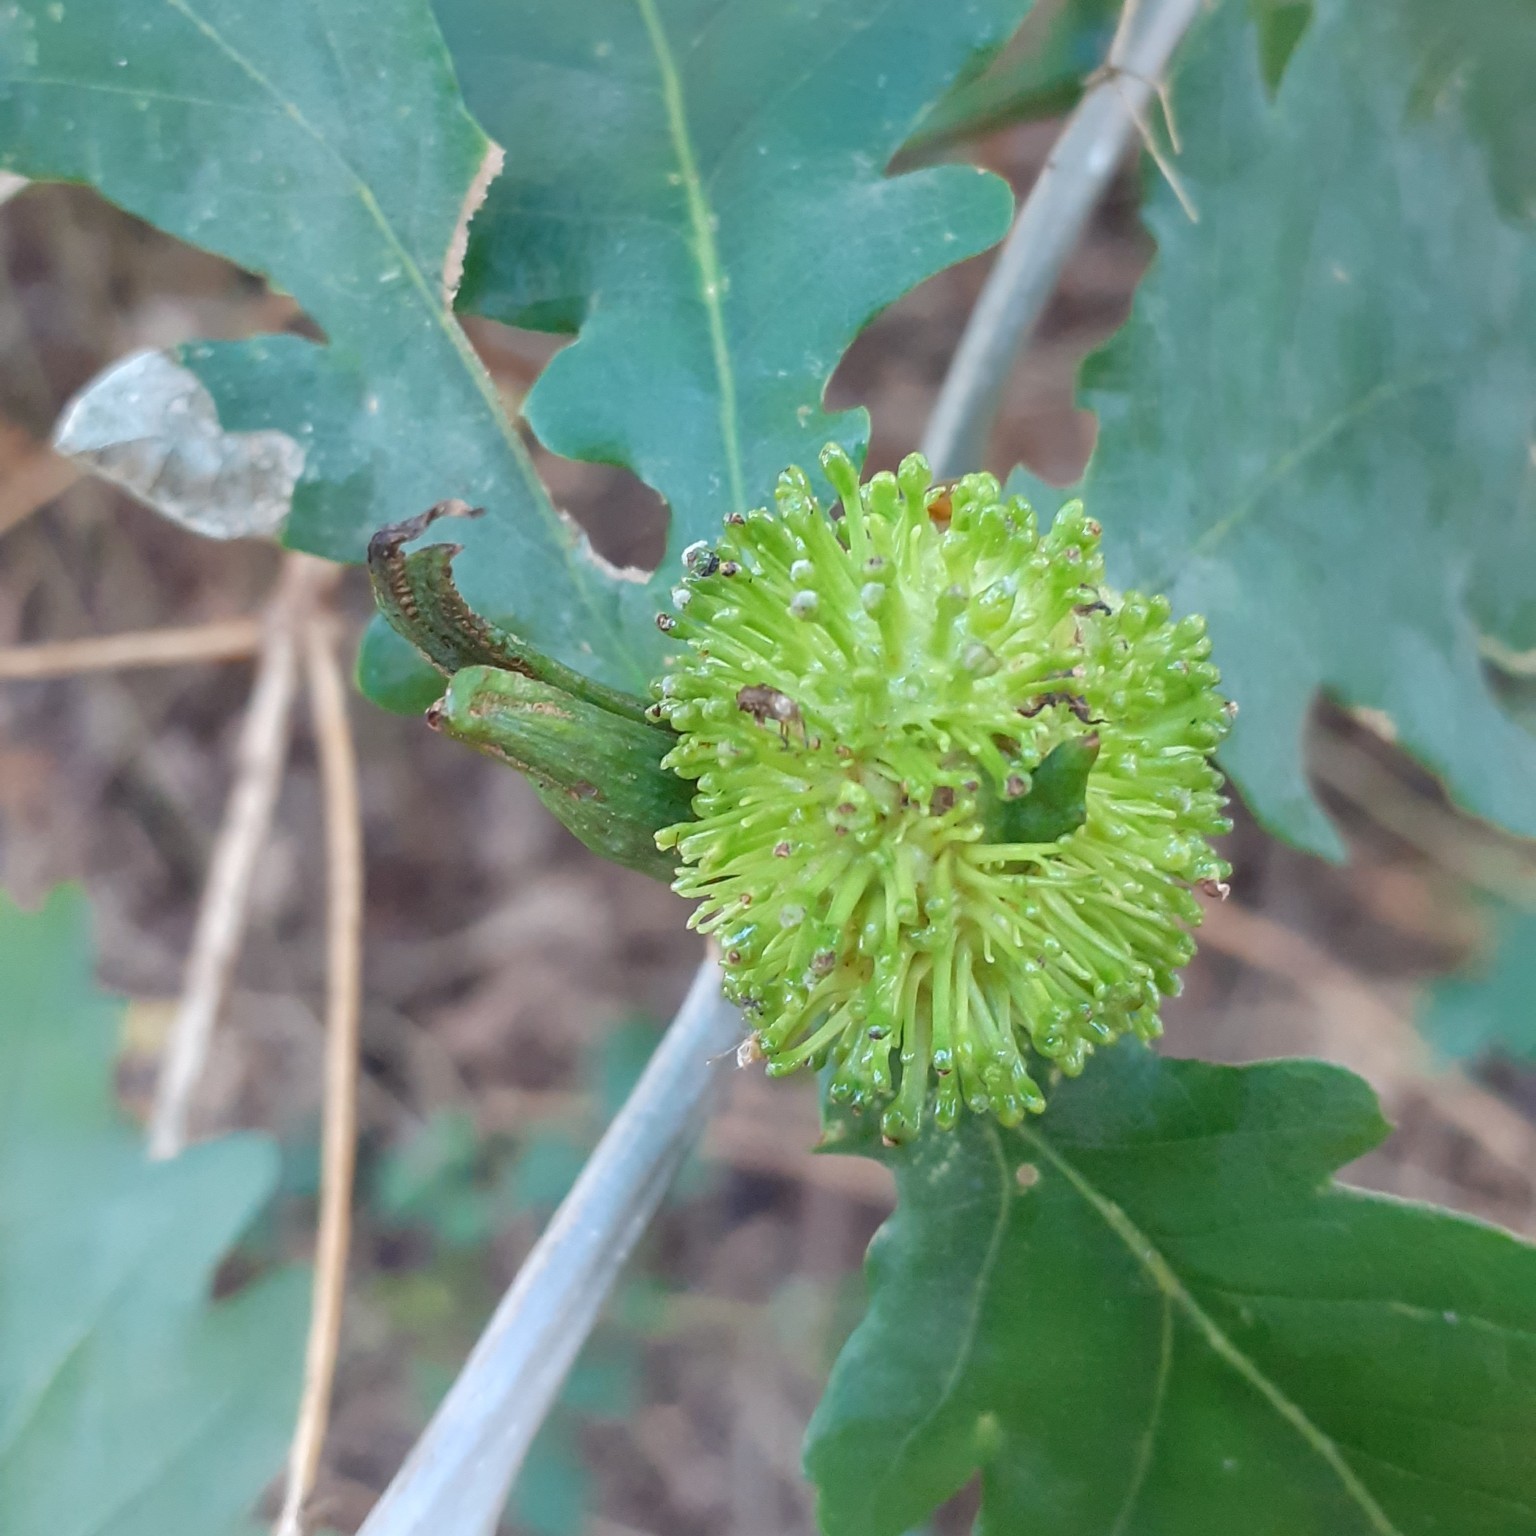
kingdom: Animalia
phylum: Arthropoda
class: Insecta
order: Hymenoptera
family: Cynipidae
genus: Andricus
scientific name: Andricus lucidus
